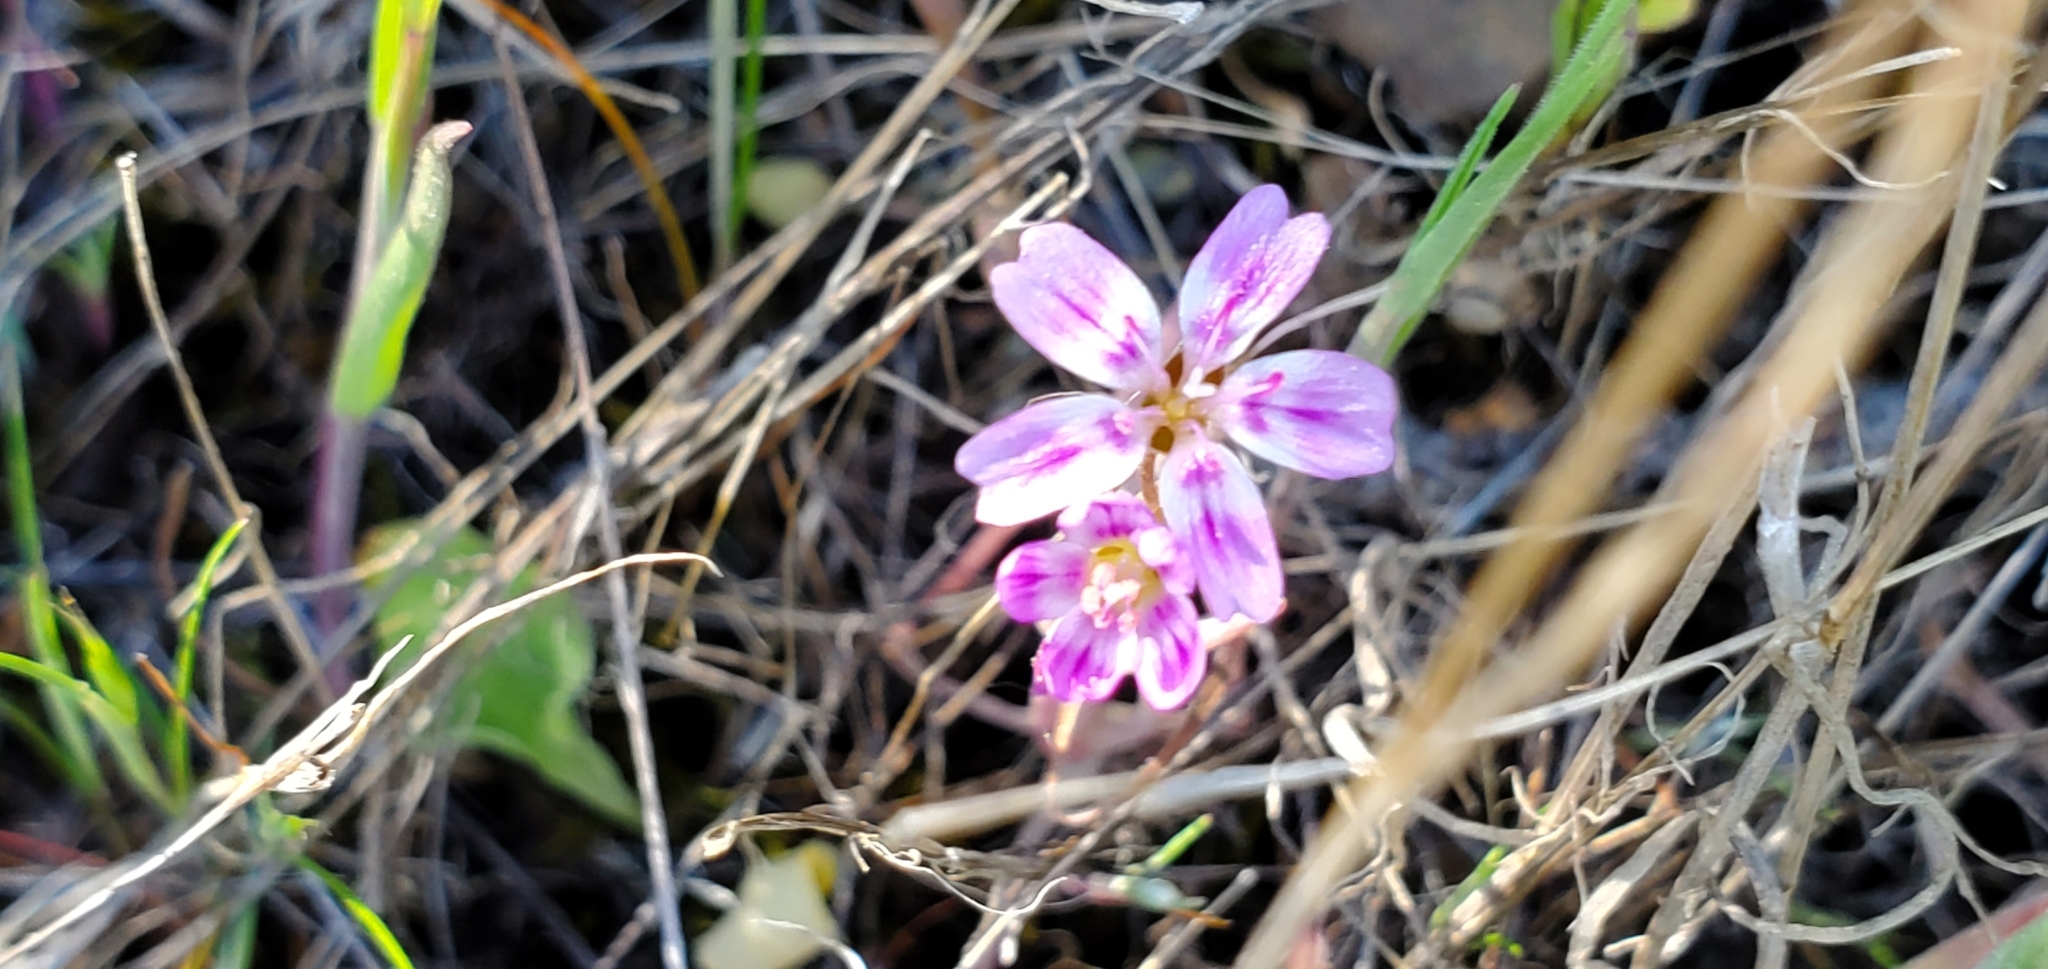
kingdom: Plantae
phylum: Tracheophyta
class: Magnoliopsida
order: Caryophyllales
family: Montiaceae
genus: Claytonia
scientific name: Claytonia gypsophiloides
